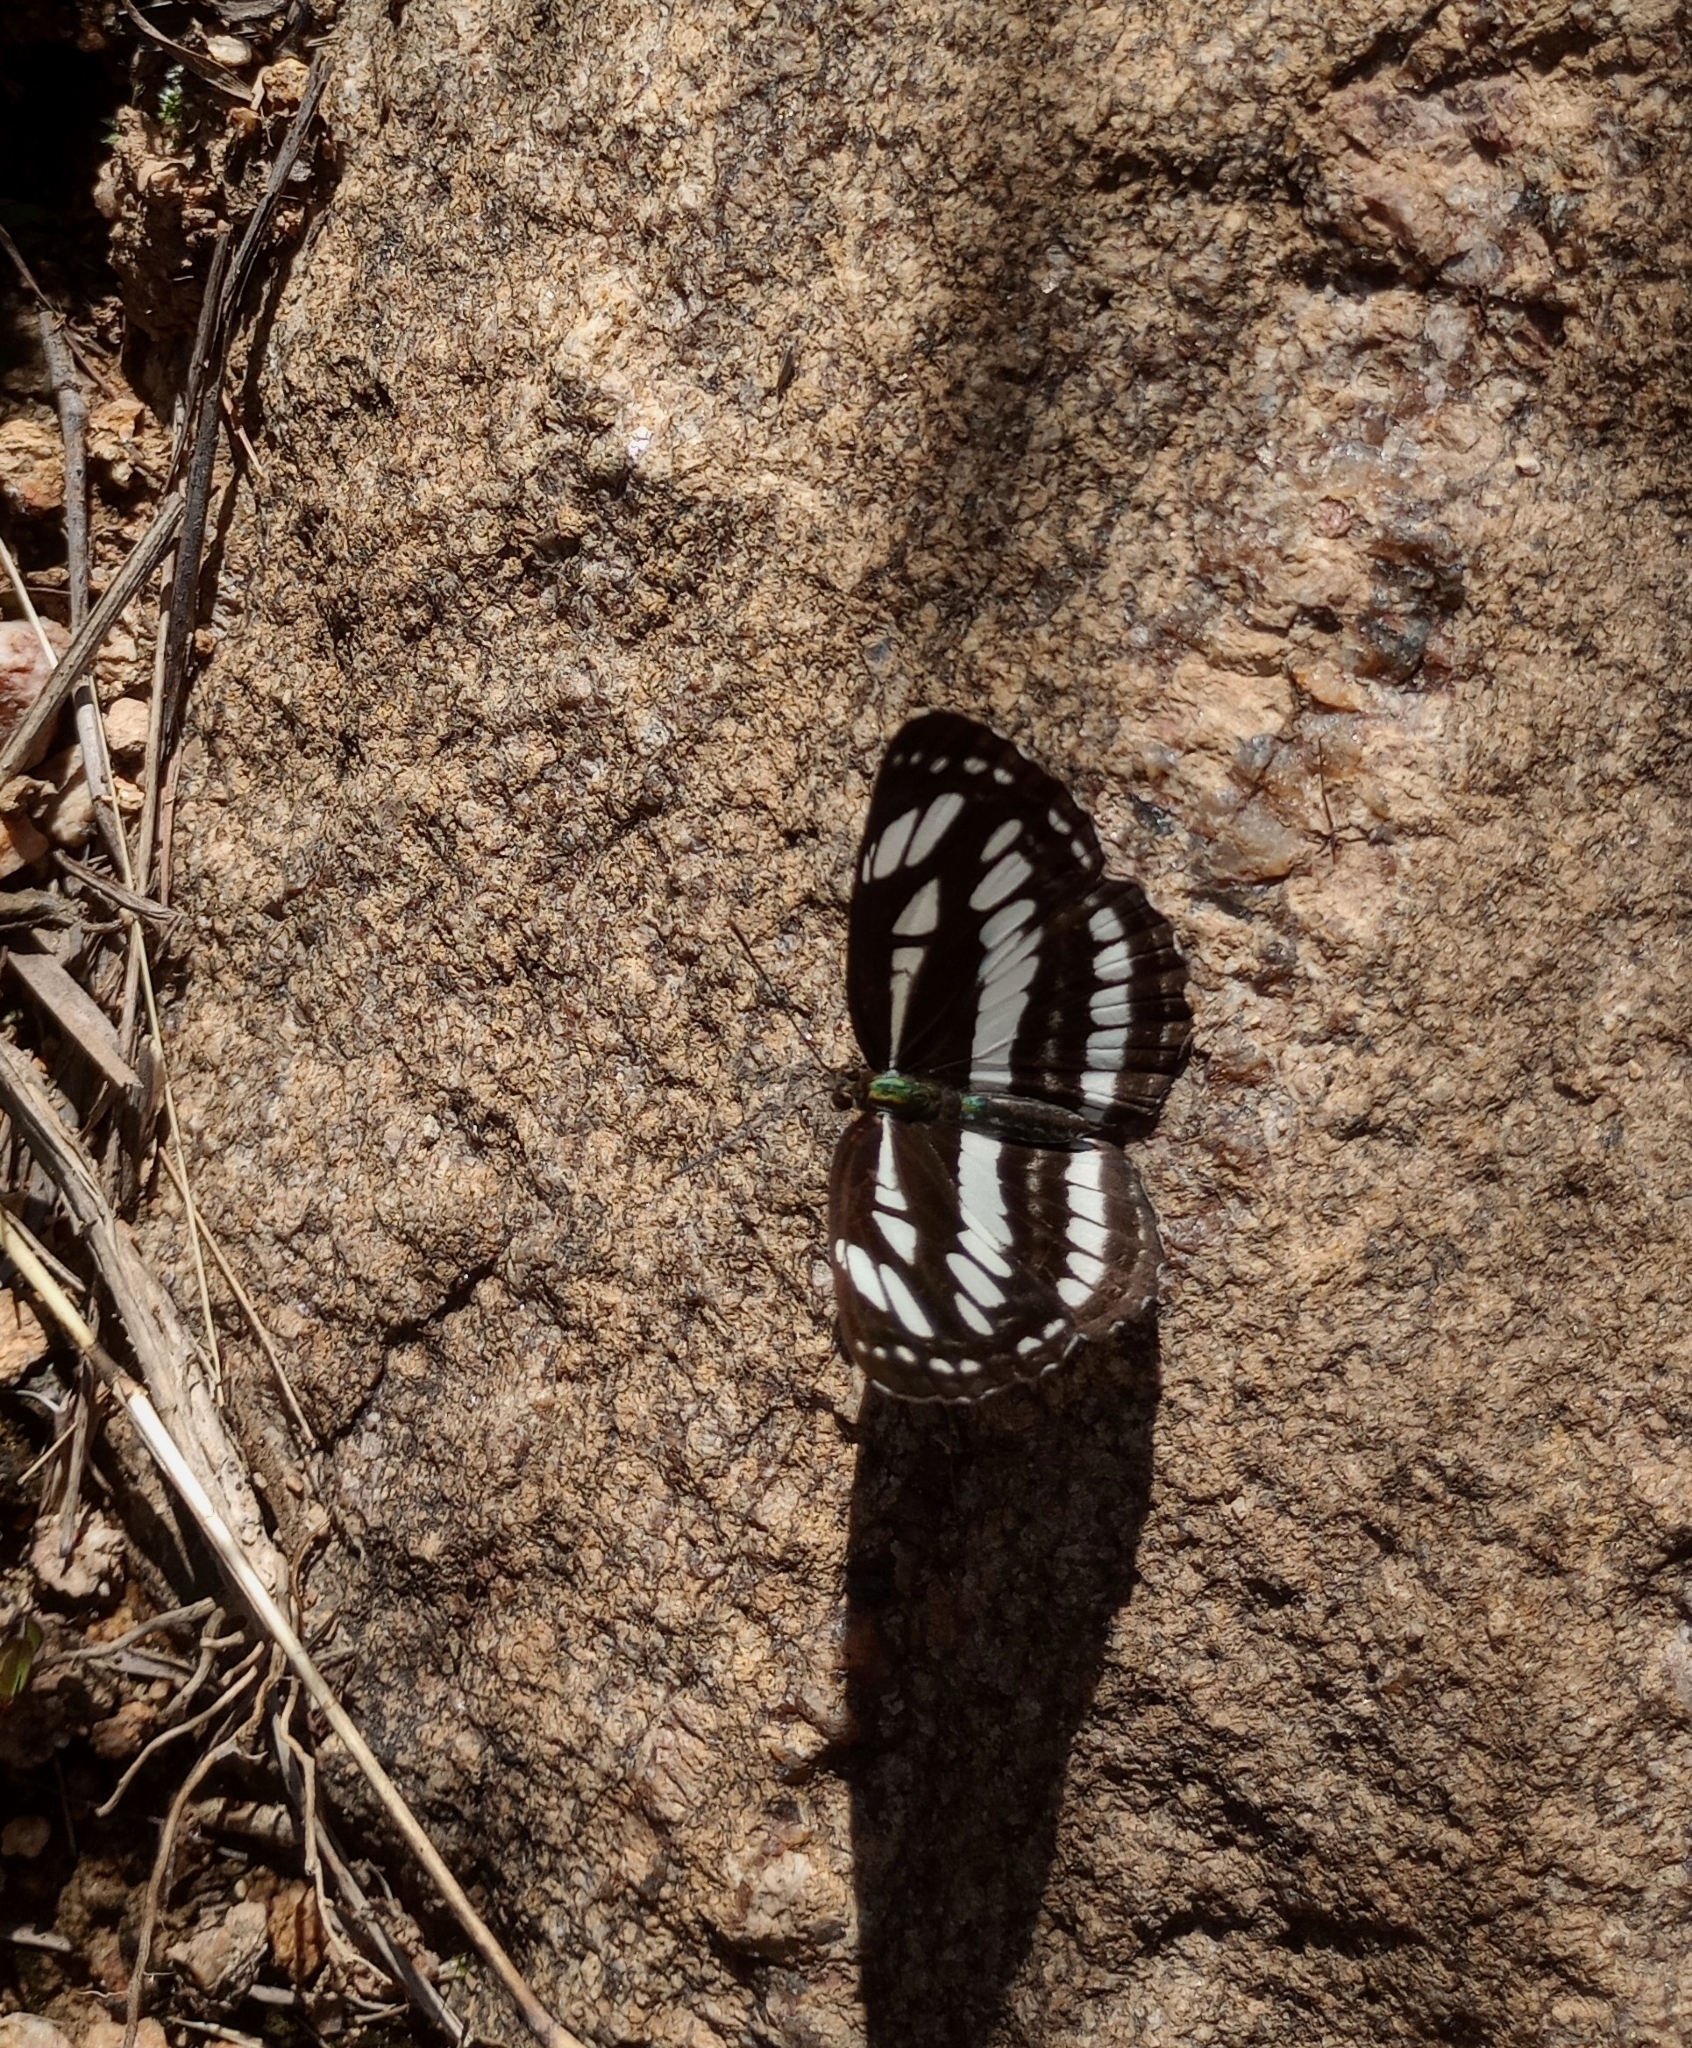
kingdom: Animalia
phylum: Arthropoda
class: Insecta
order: Lepidoptera
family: Nymphalidae
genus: Neptis
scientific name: Neptis hylas
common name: Common sailer
